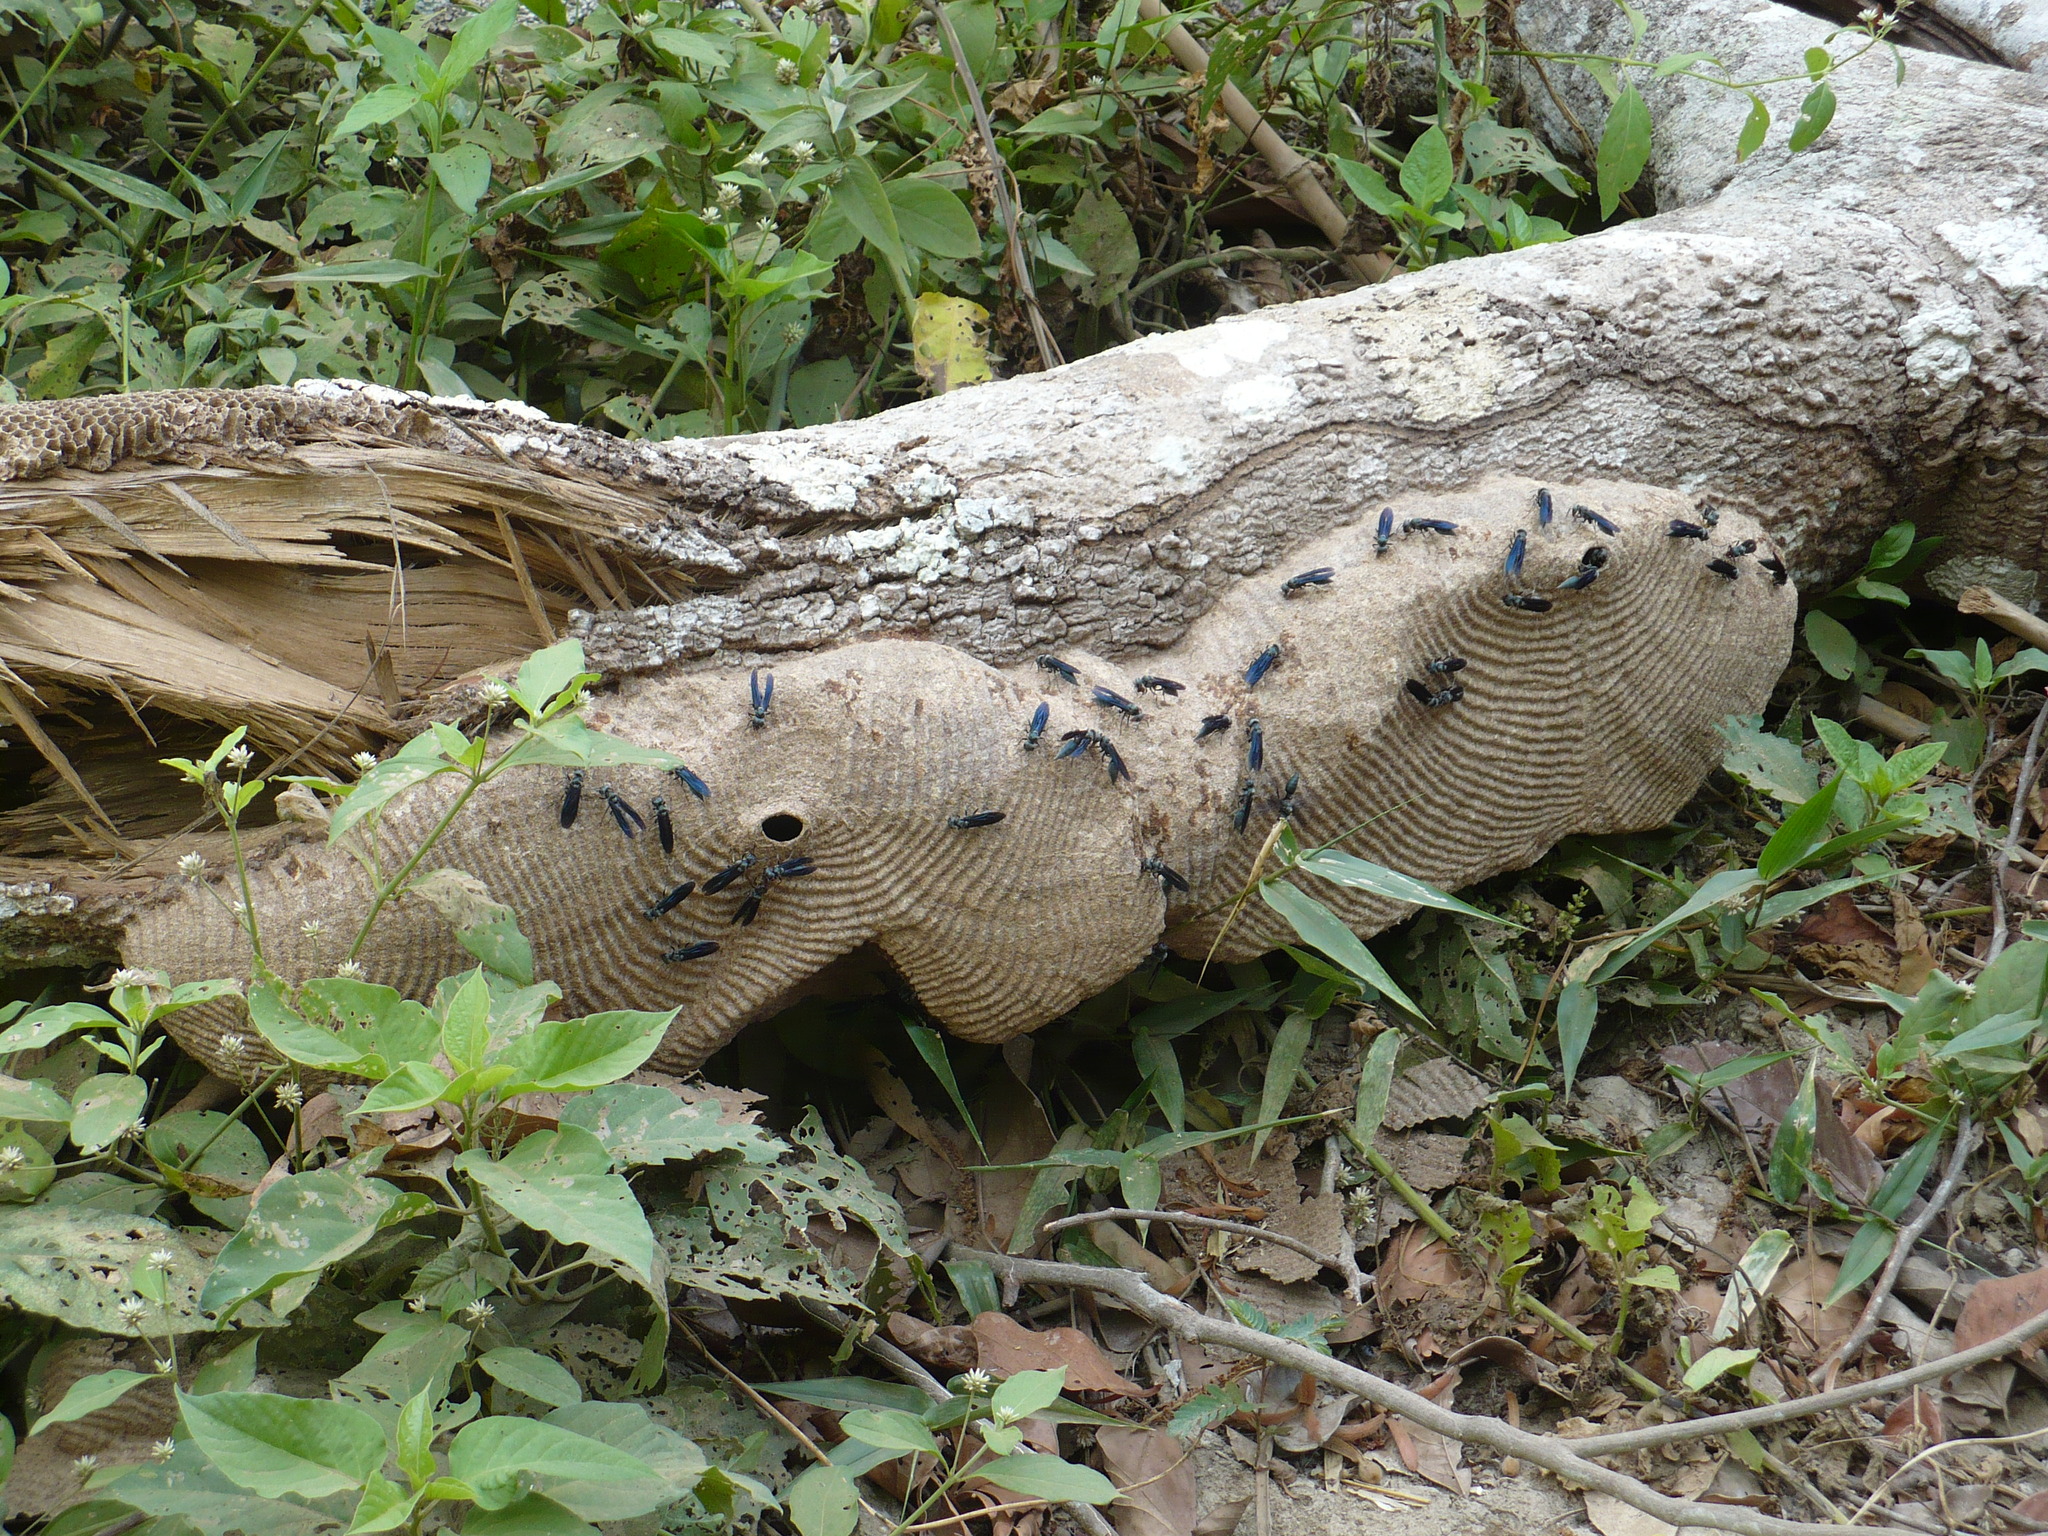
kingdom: Animalia
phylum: Arthropoda
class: Insecta
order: Hymenoptera
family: Vespidae
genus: Synoeca
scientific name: Synoeca septentrionalis
